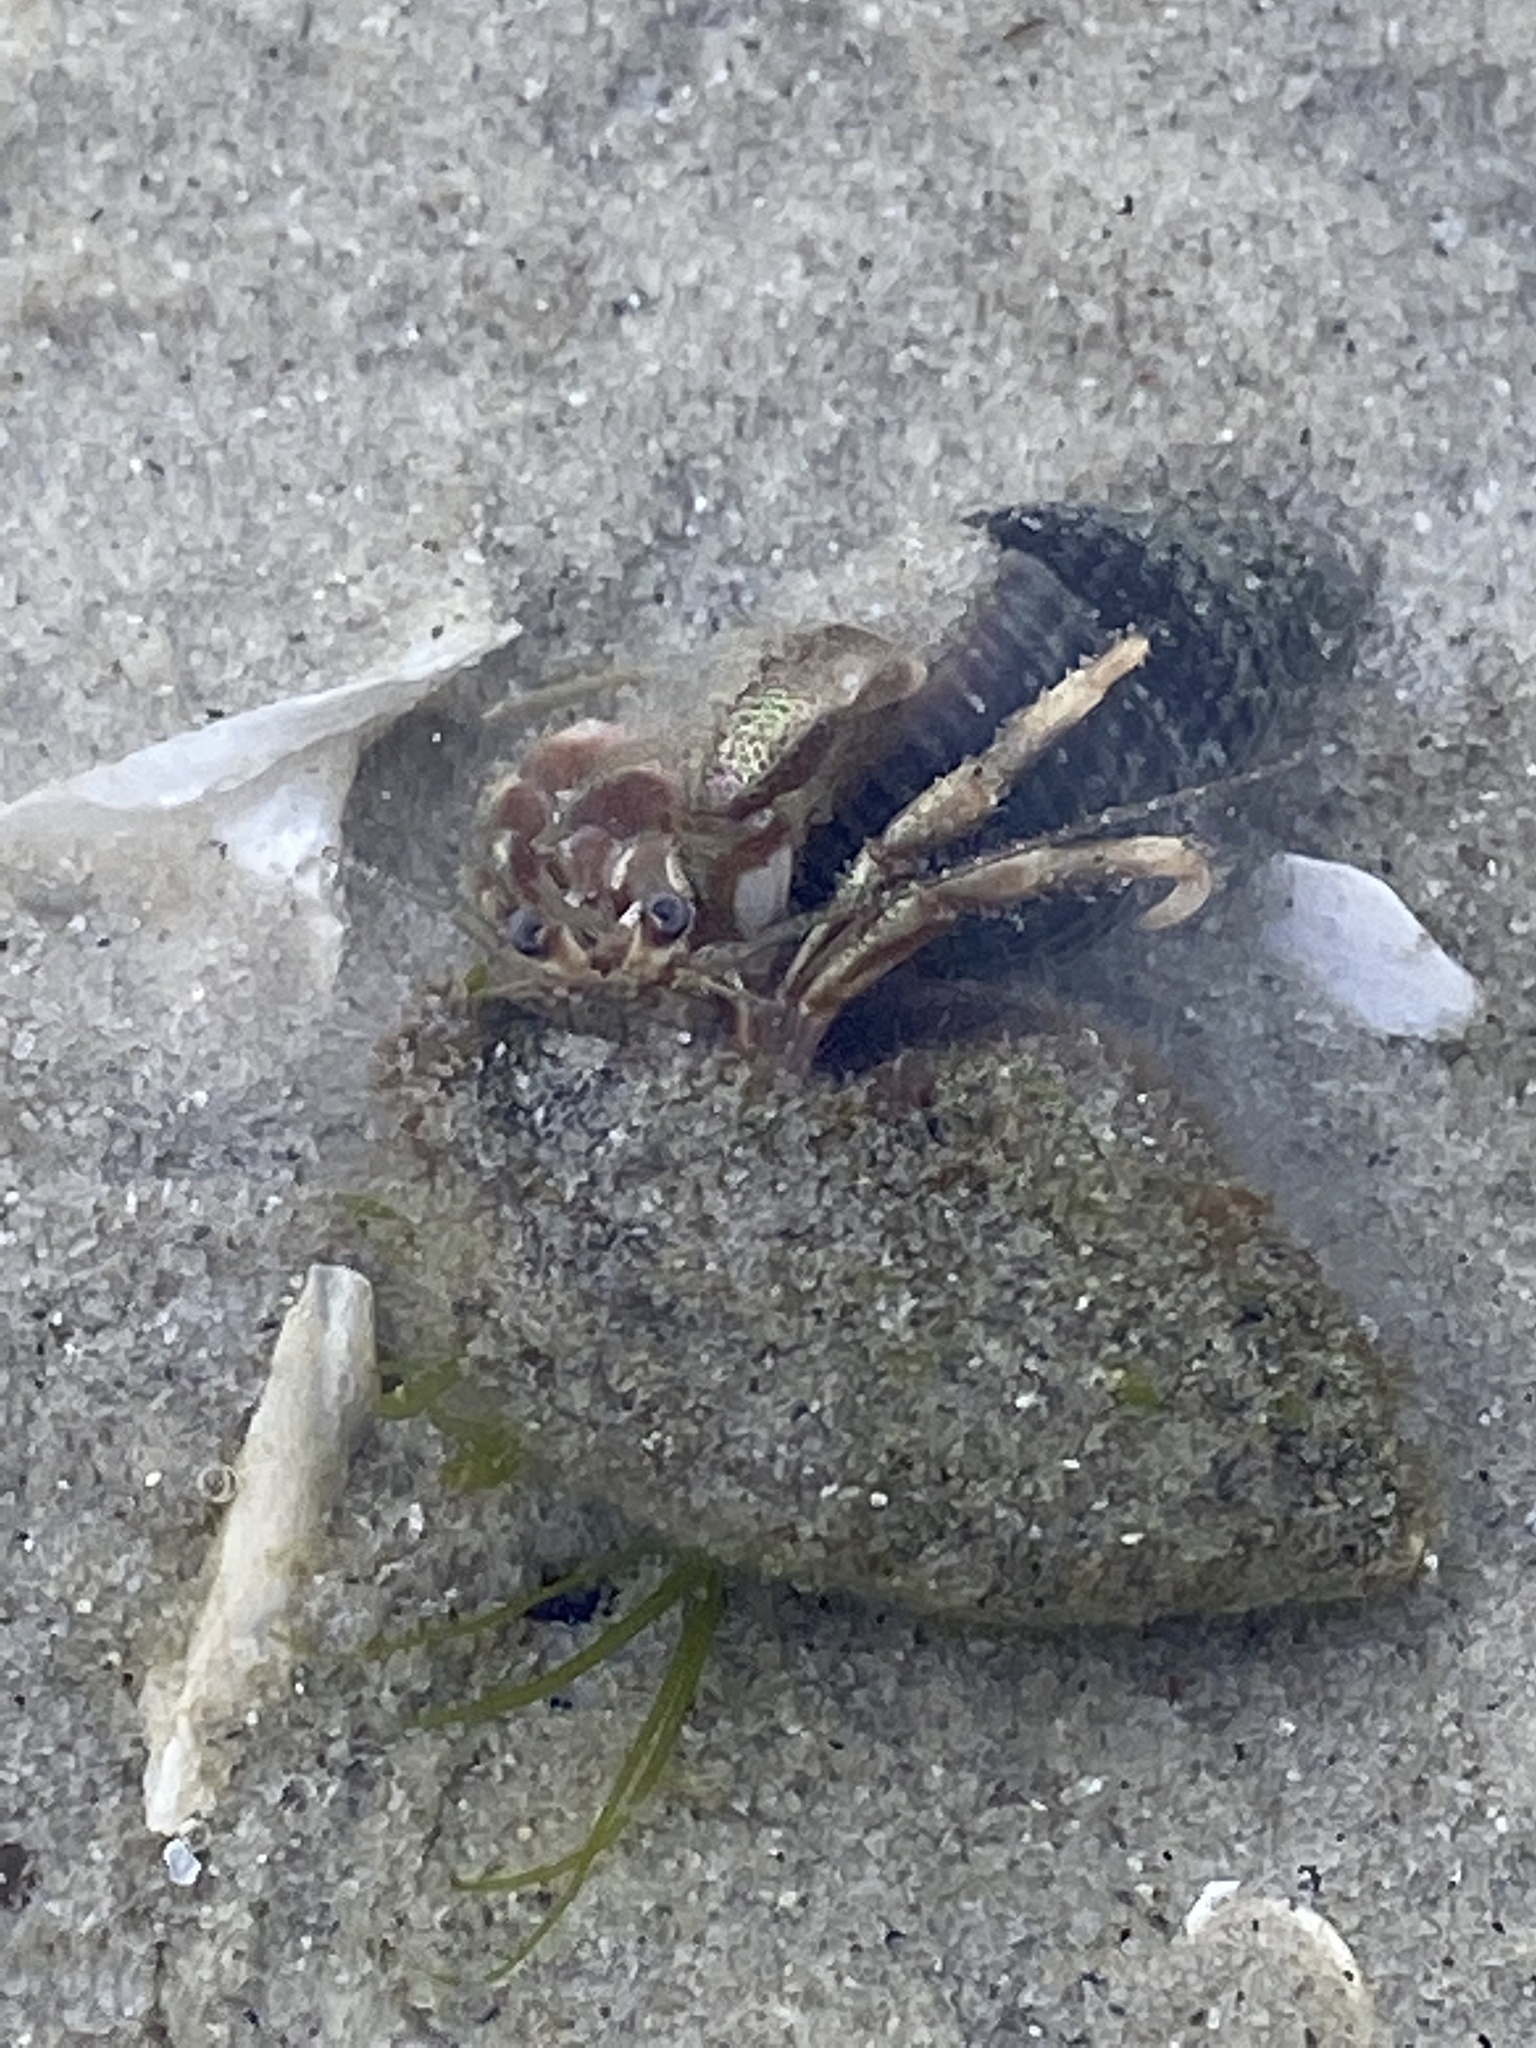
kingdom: Animalia
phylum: Arthropoda
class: Malacostraca
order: Decapoda
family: Paguridae
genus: Pagurus
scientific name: Pagurus longicarpus
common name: Long-armed hermit crab
